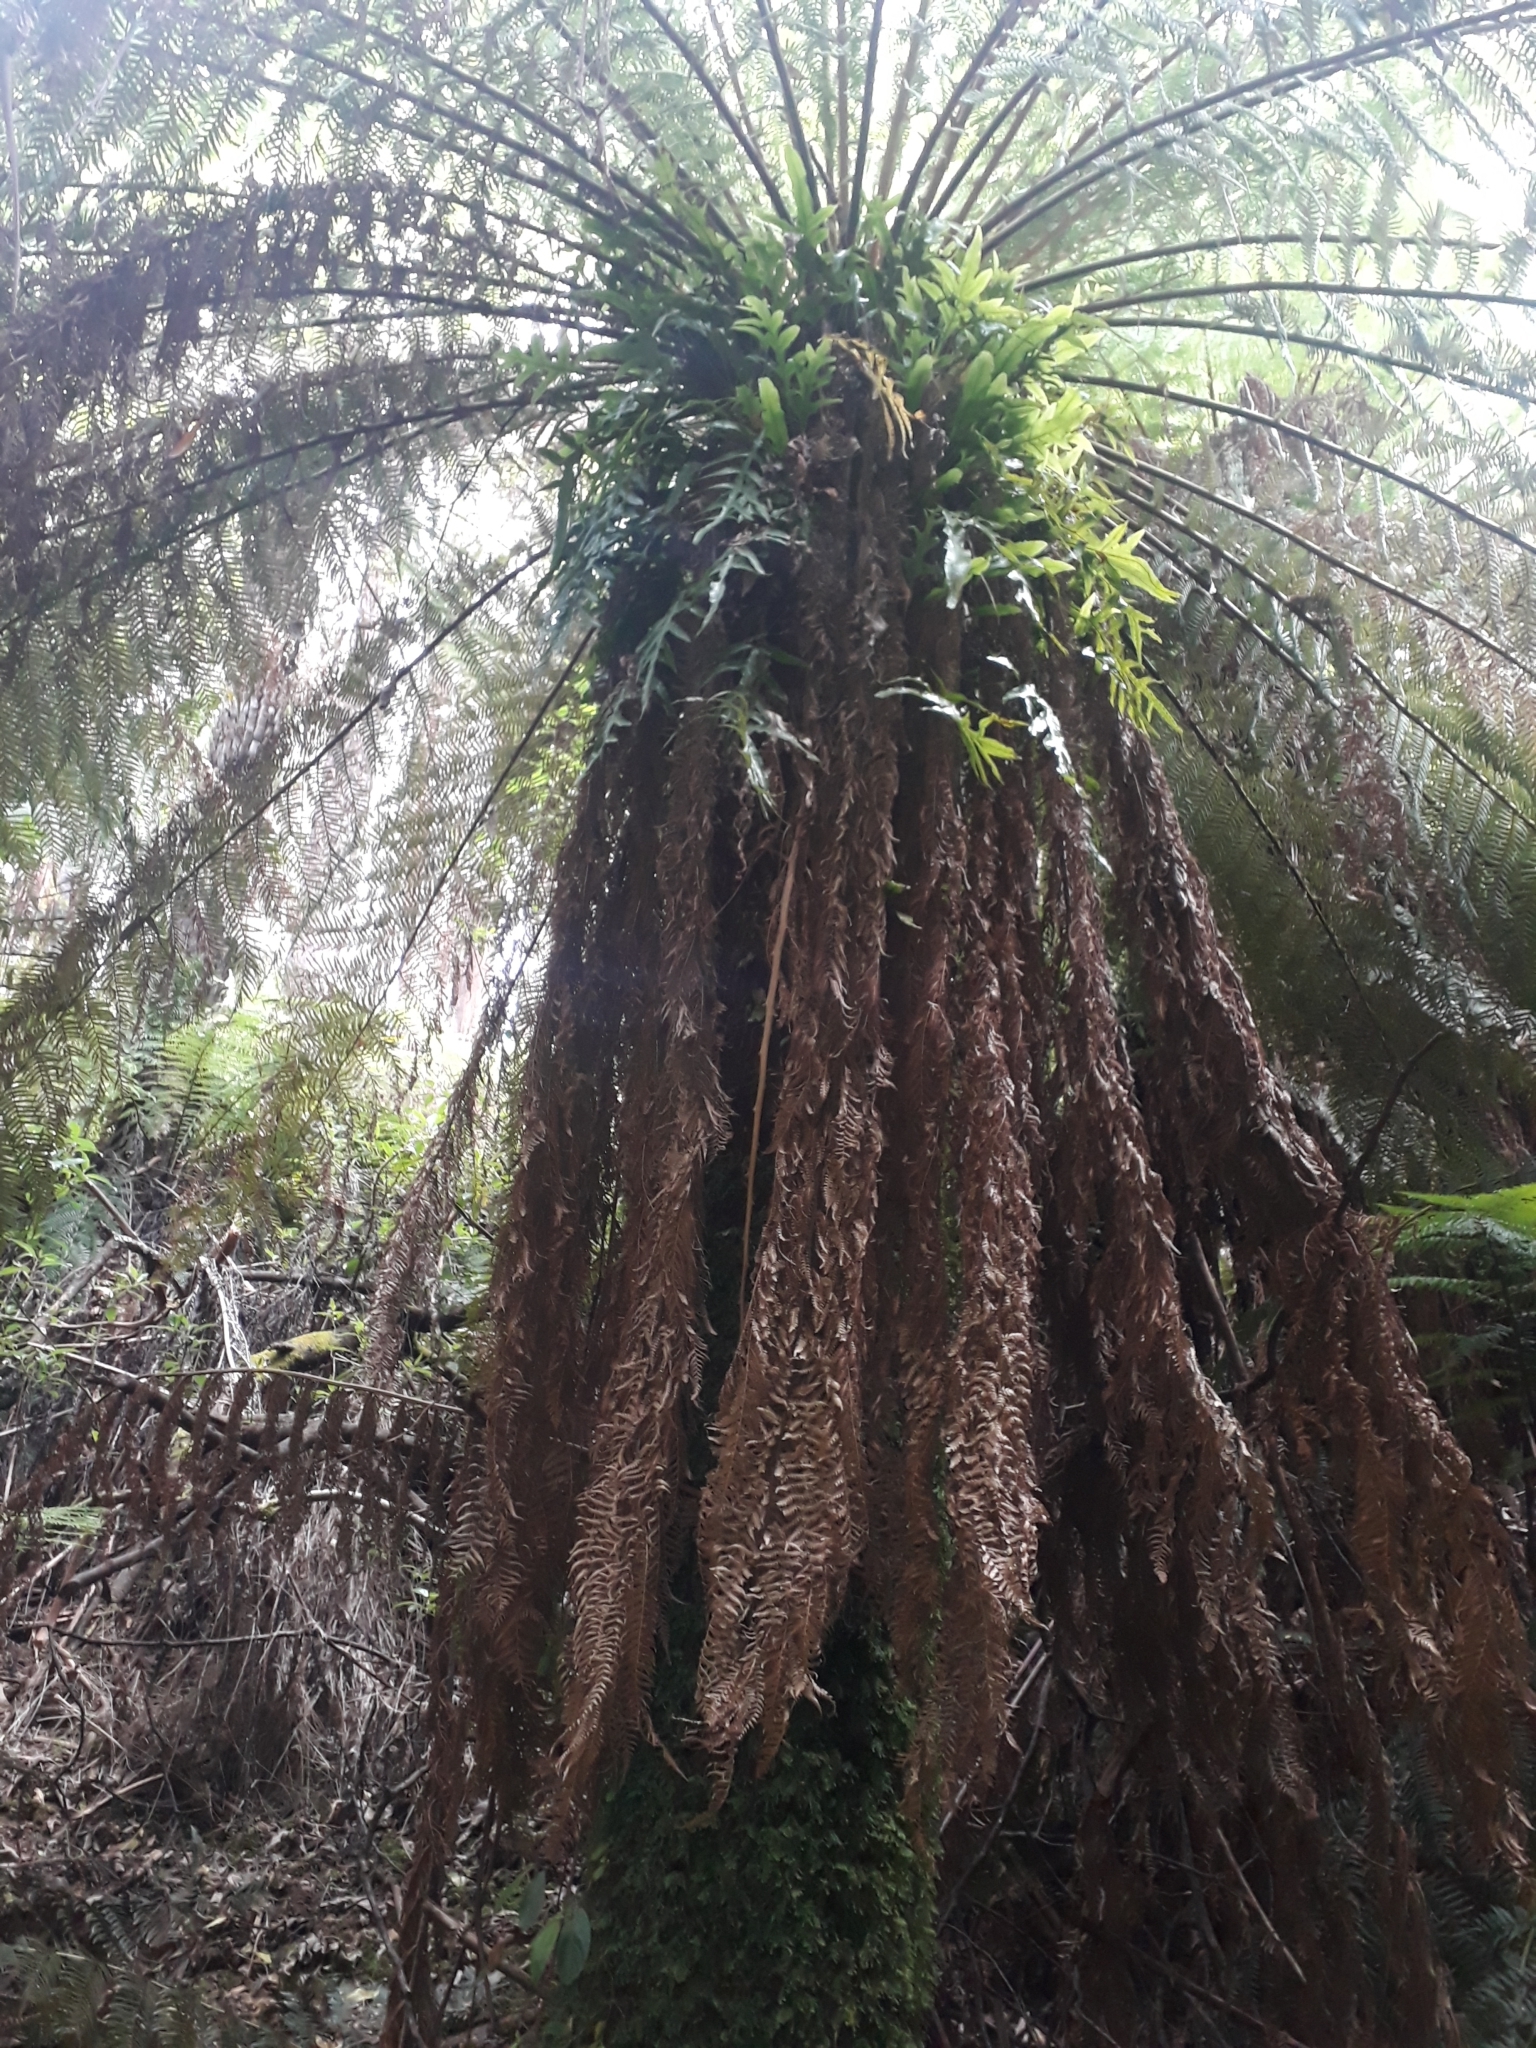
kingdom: Plantae
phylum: Tracheophyta
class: Polypodiopsida
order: Cyatheales
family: Dicksoniaceae
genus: Dicksonia
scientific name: Dicksonia antarctica
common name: Australian treefern
